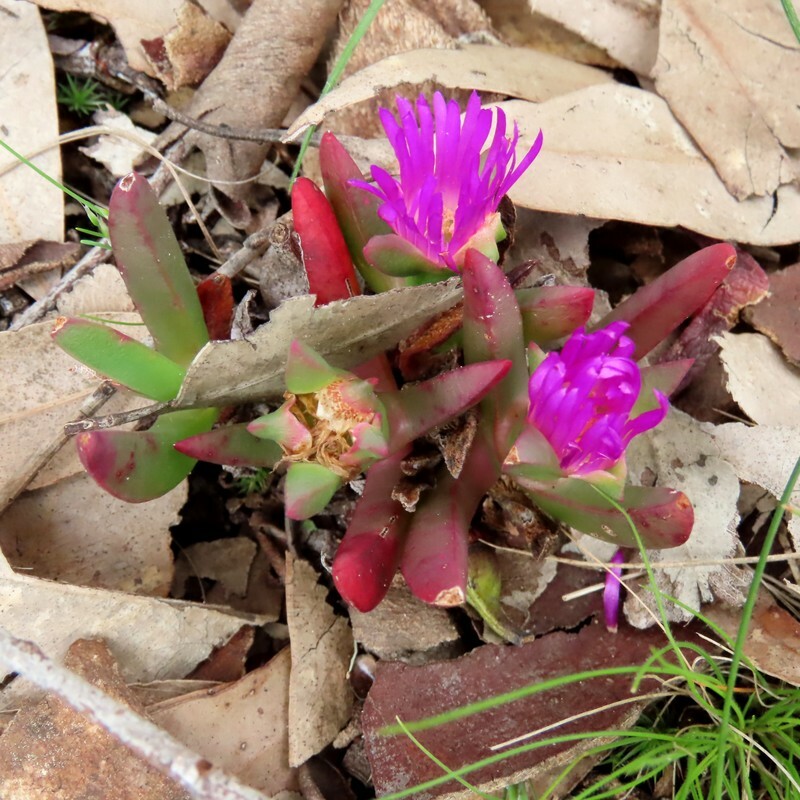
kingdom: Plantae
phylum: Tracheophyta
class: Magnoliopsida
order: Caryophyllales
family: Aizoaceae
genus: Carpobrotus
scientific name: Carpobrotus modestus
